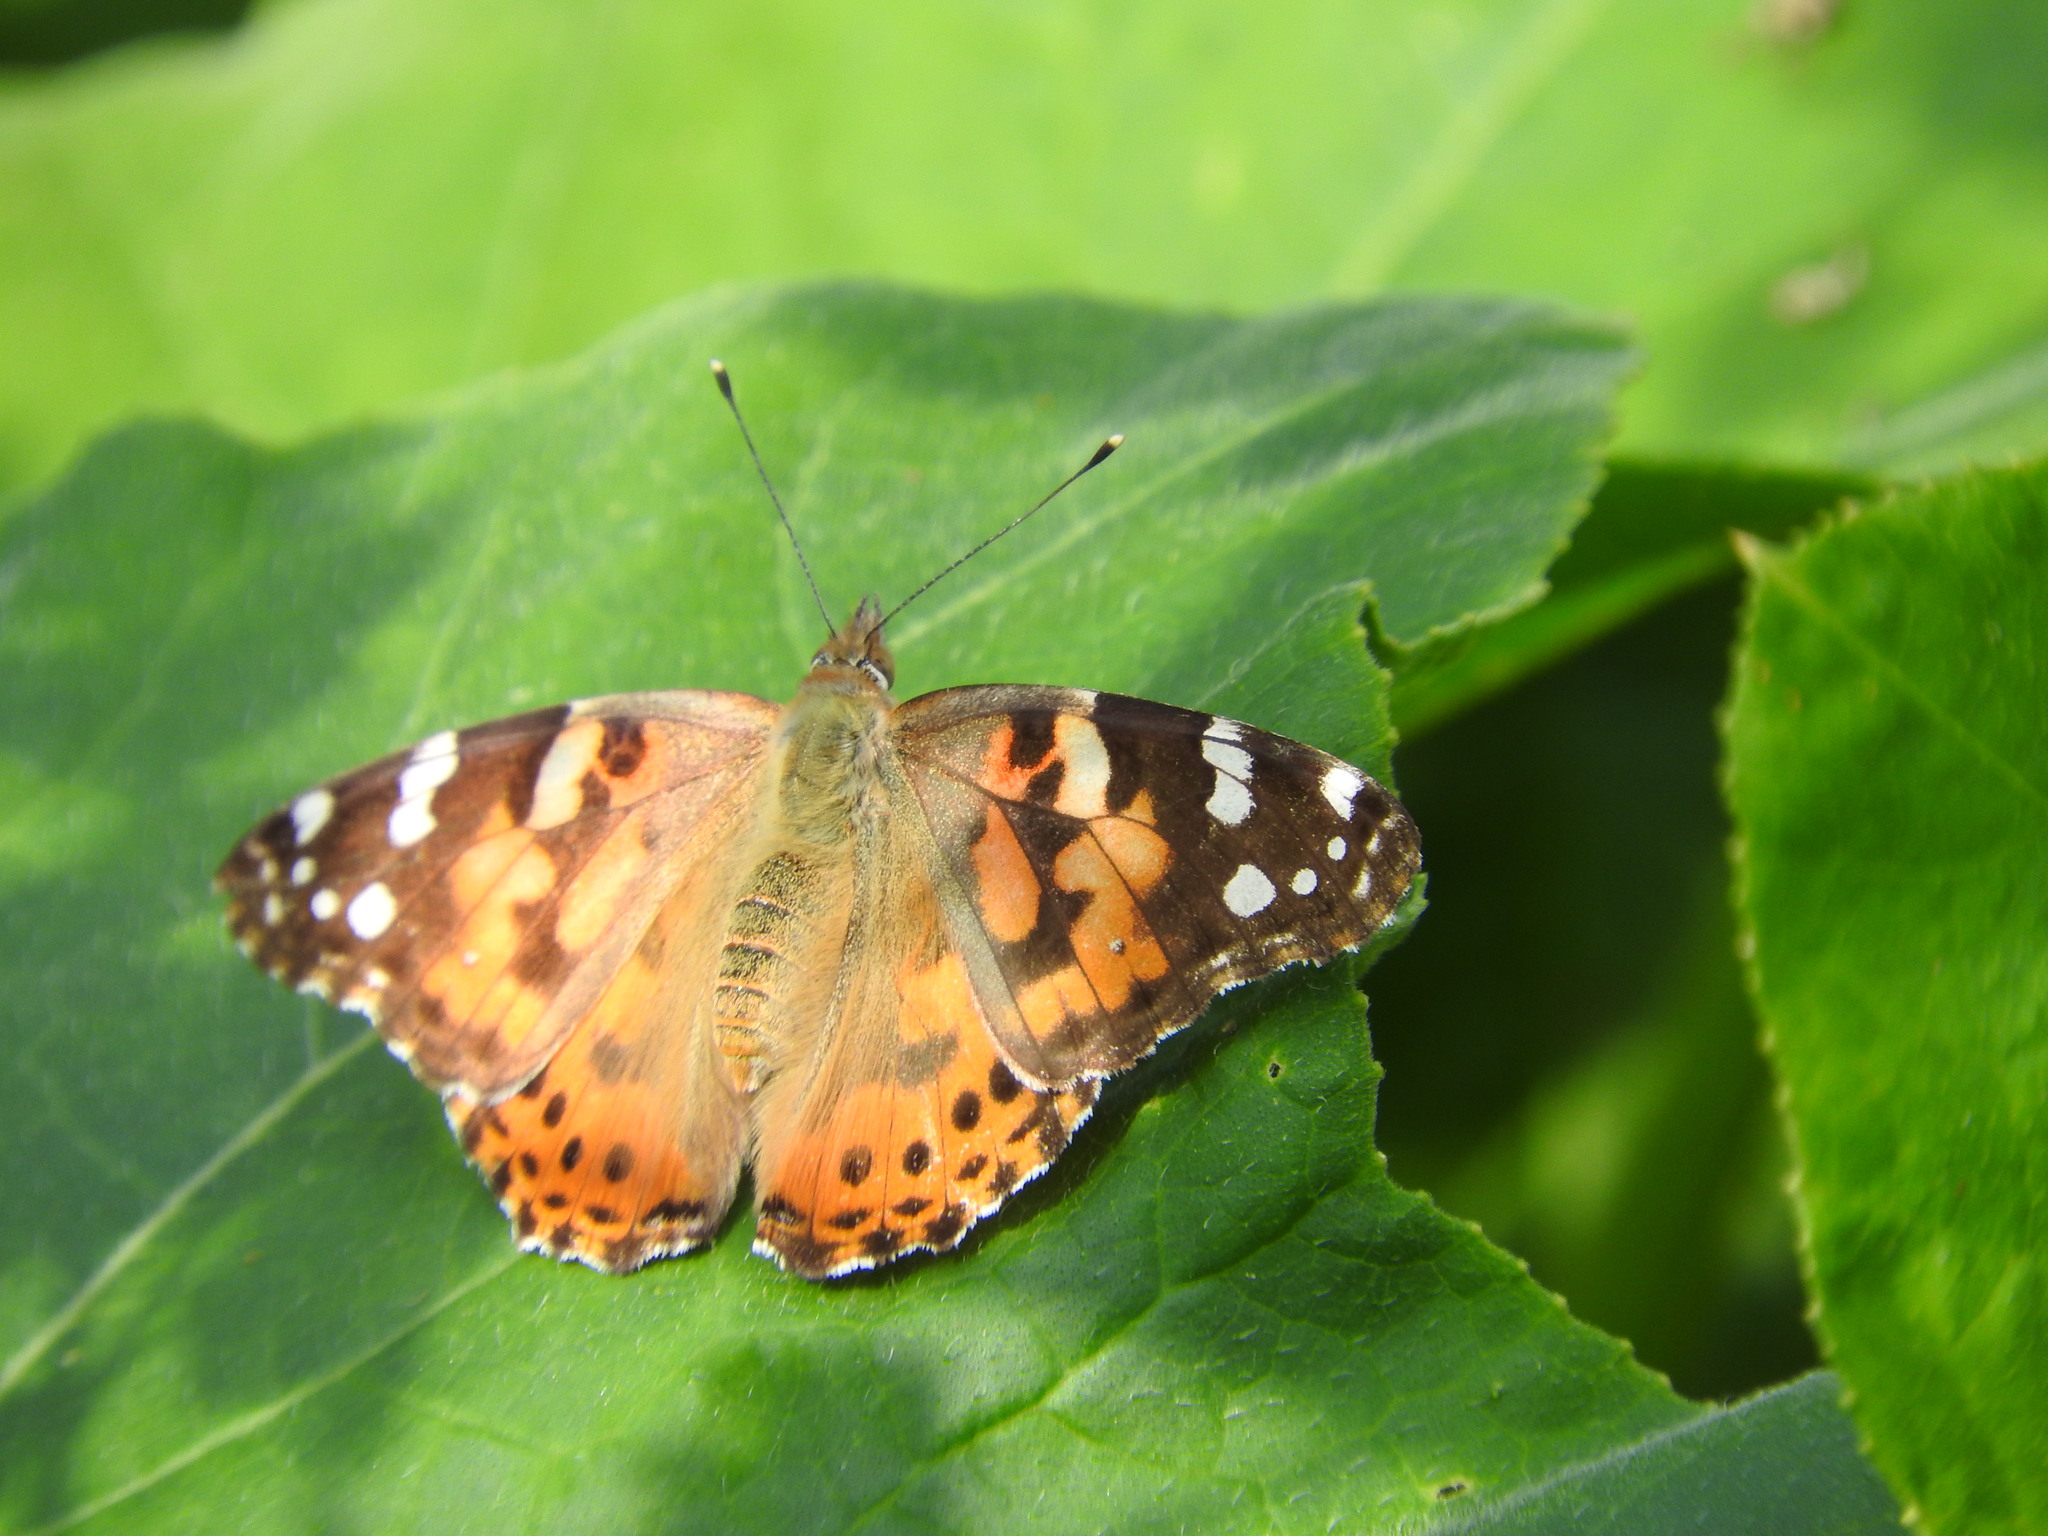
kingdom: Animalia
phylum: Arthropoda
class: Insecta
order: Lepidoptera
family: Nymphalidae
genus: Vanessa
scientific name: Vanessa cardui
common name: Painted lady
